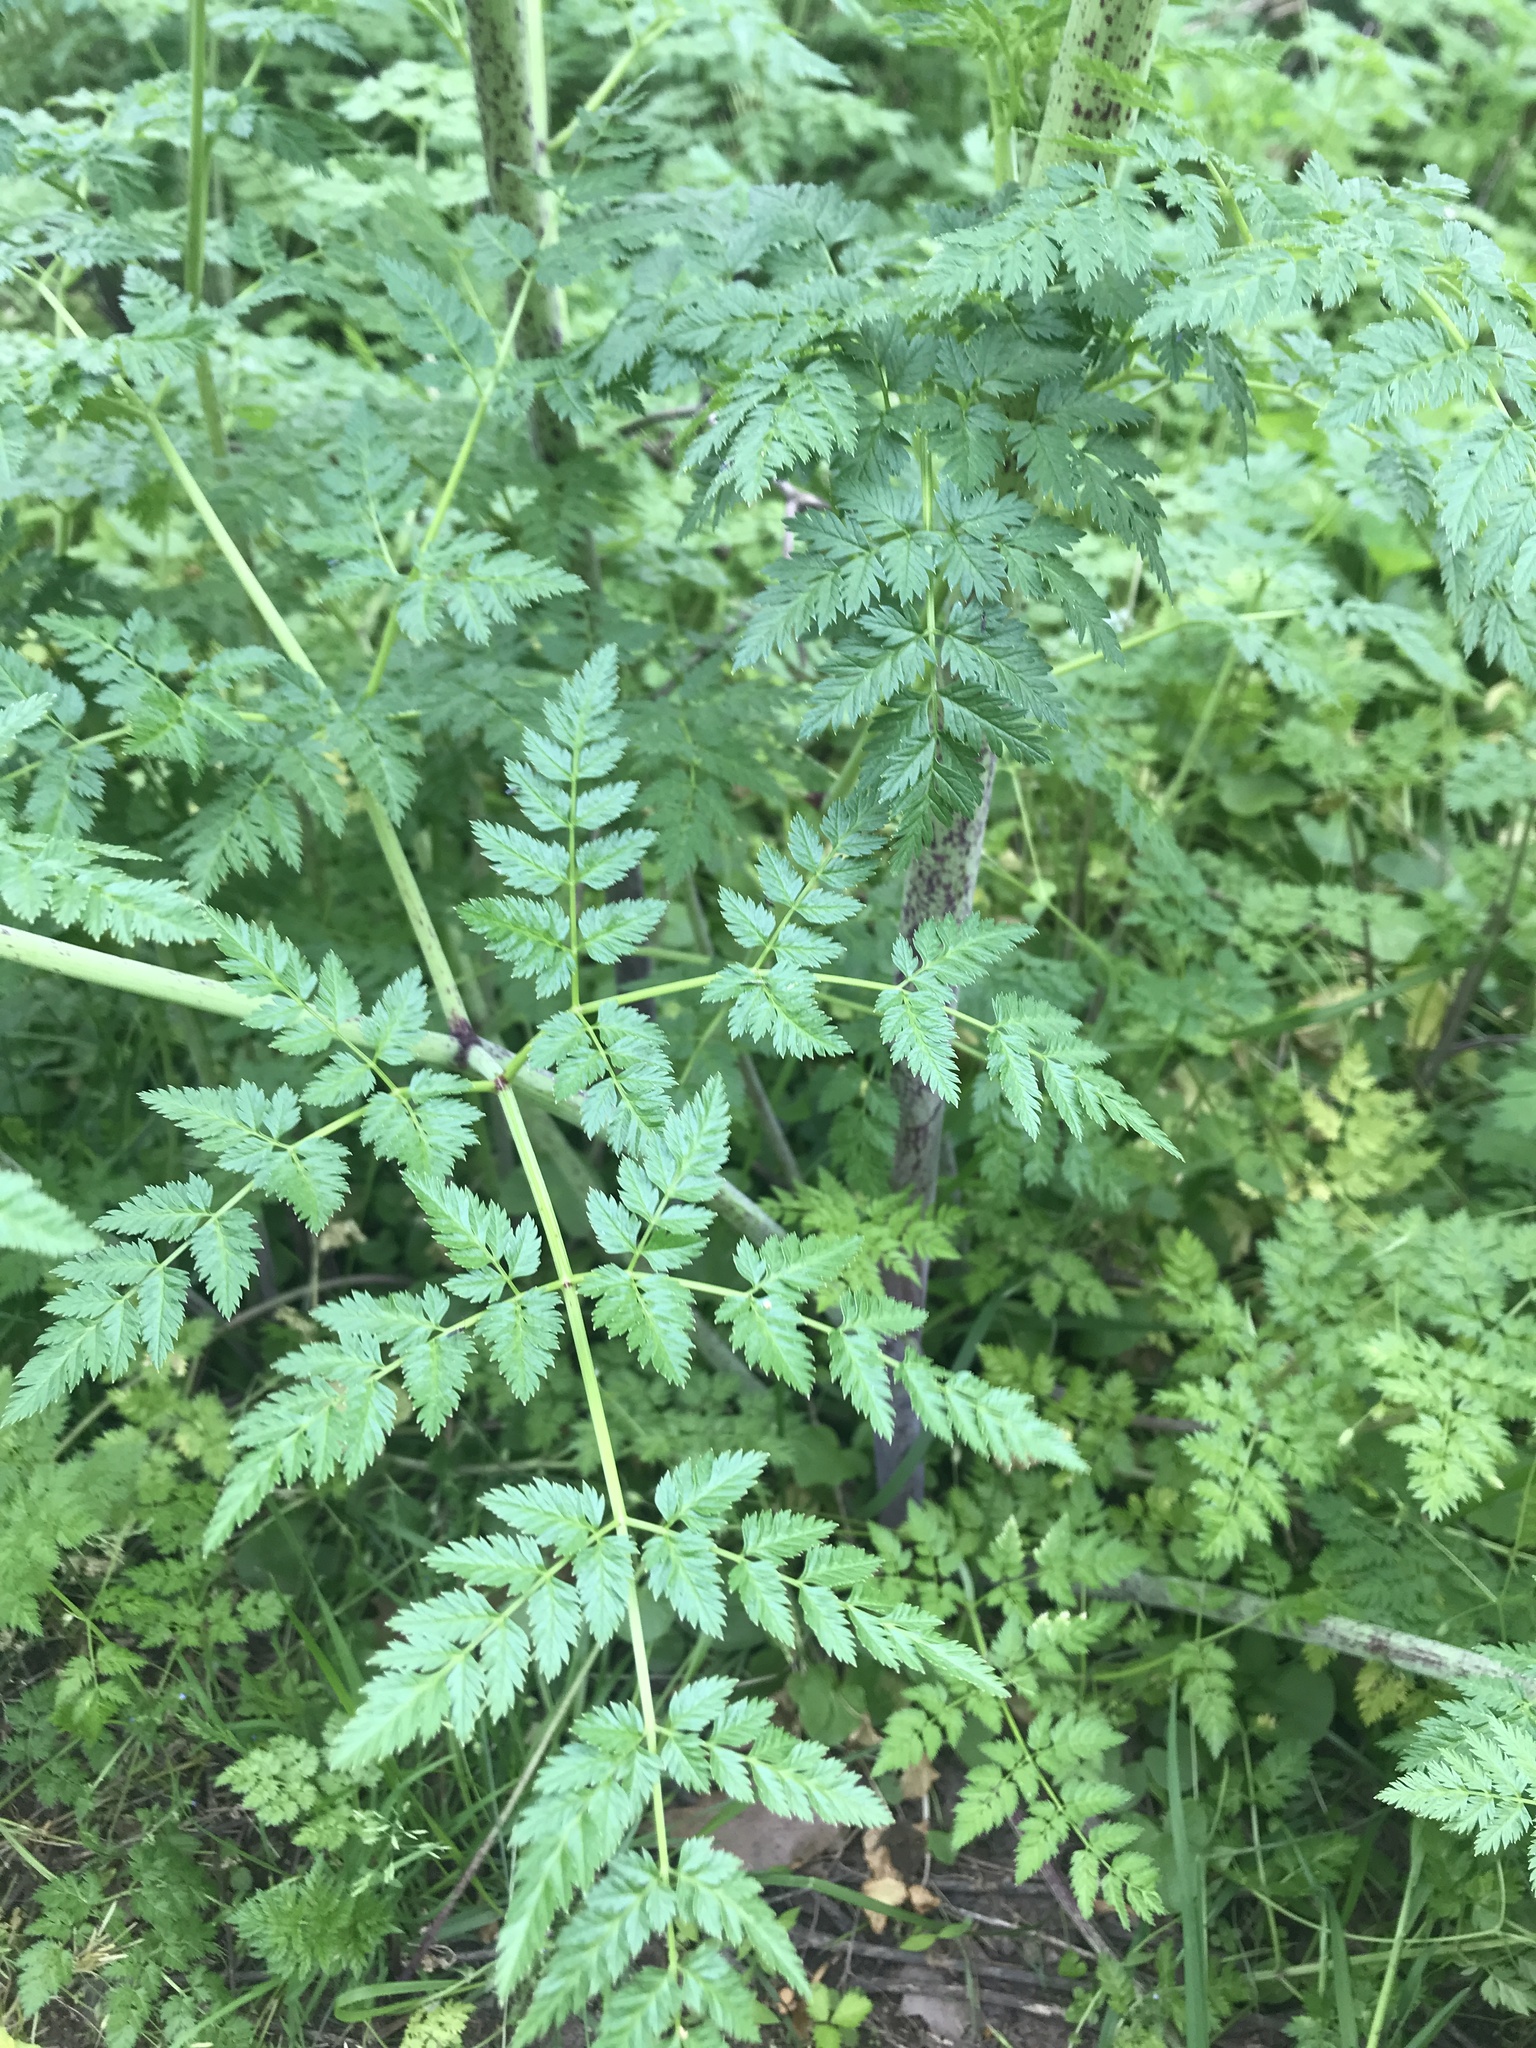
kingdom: Plantae
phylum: Tracheophyta
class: Magnoliopsida
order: Apiales
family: Apiaceae
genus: Conium
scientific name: Conium maculatum
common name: Hemlock
